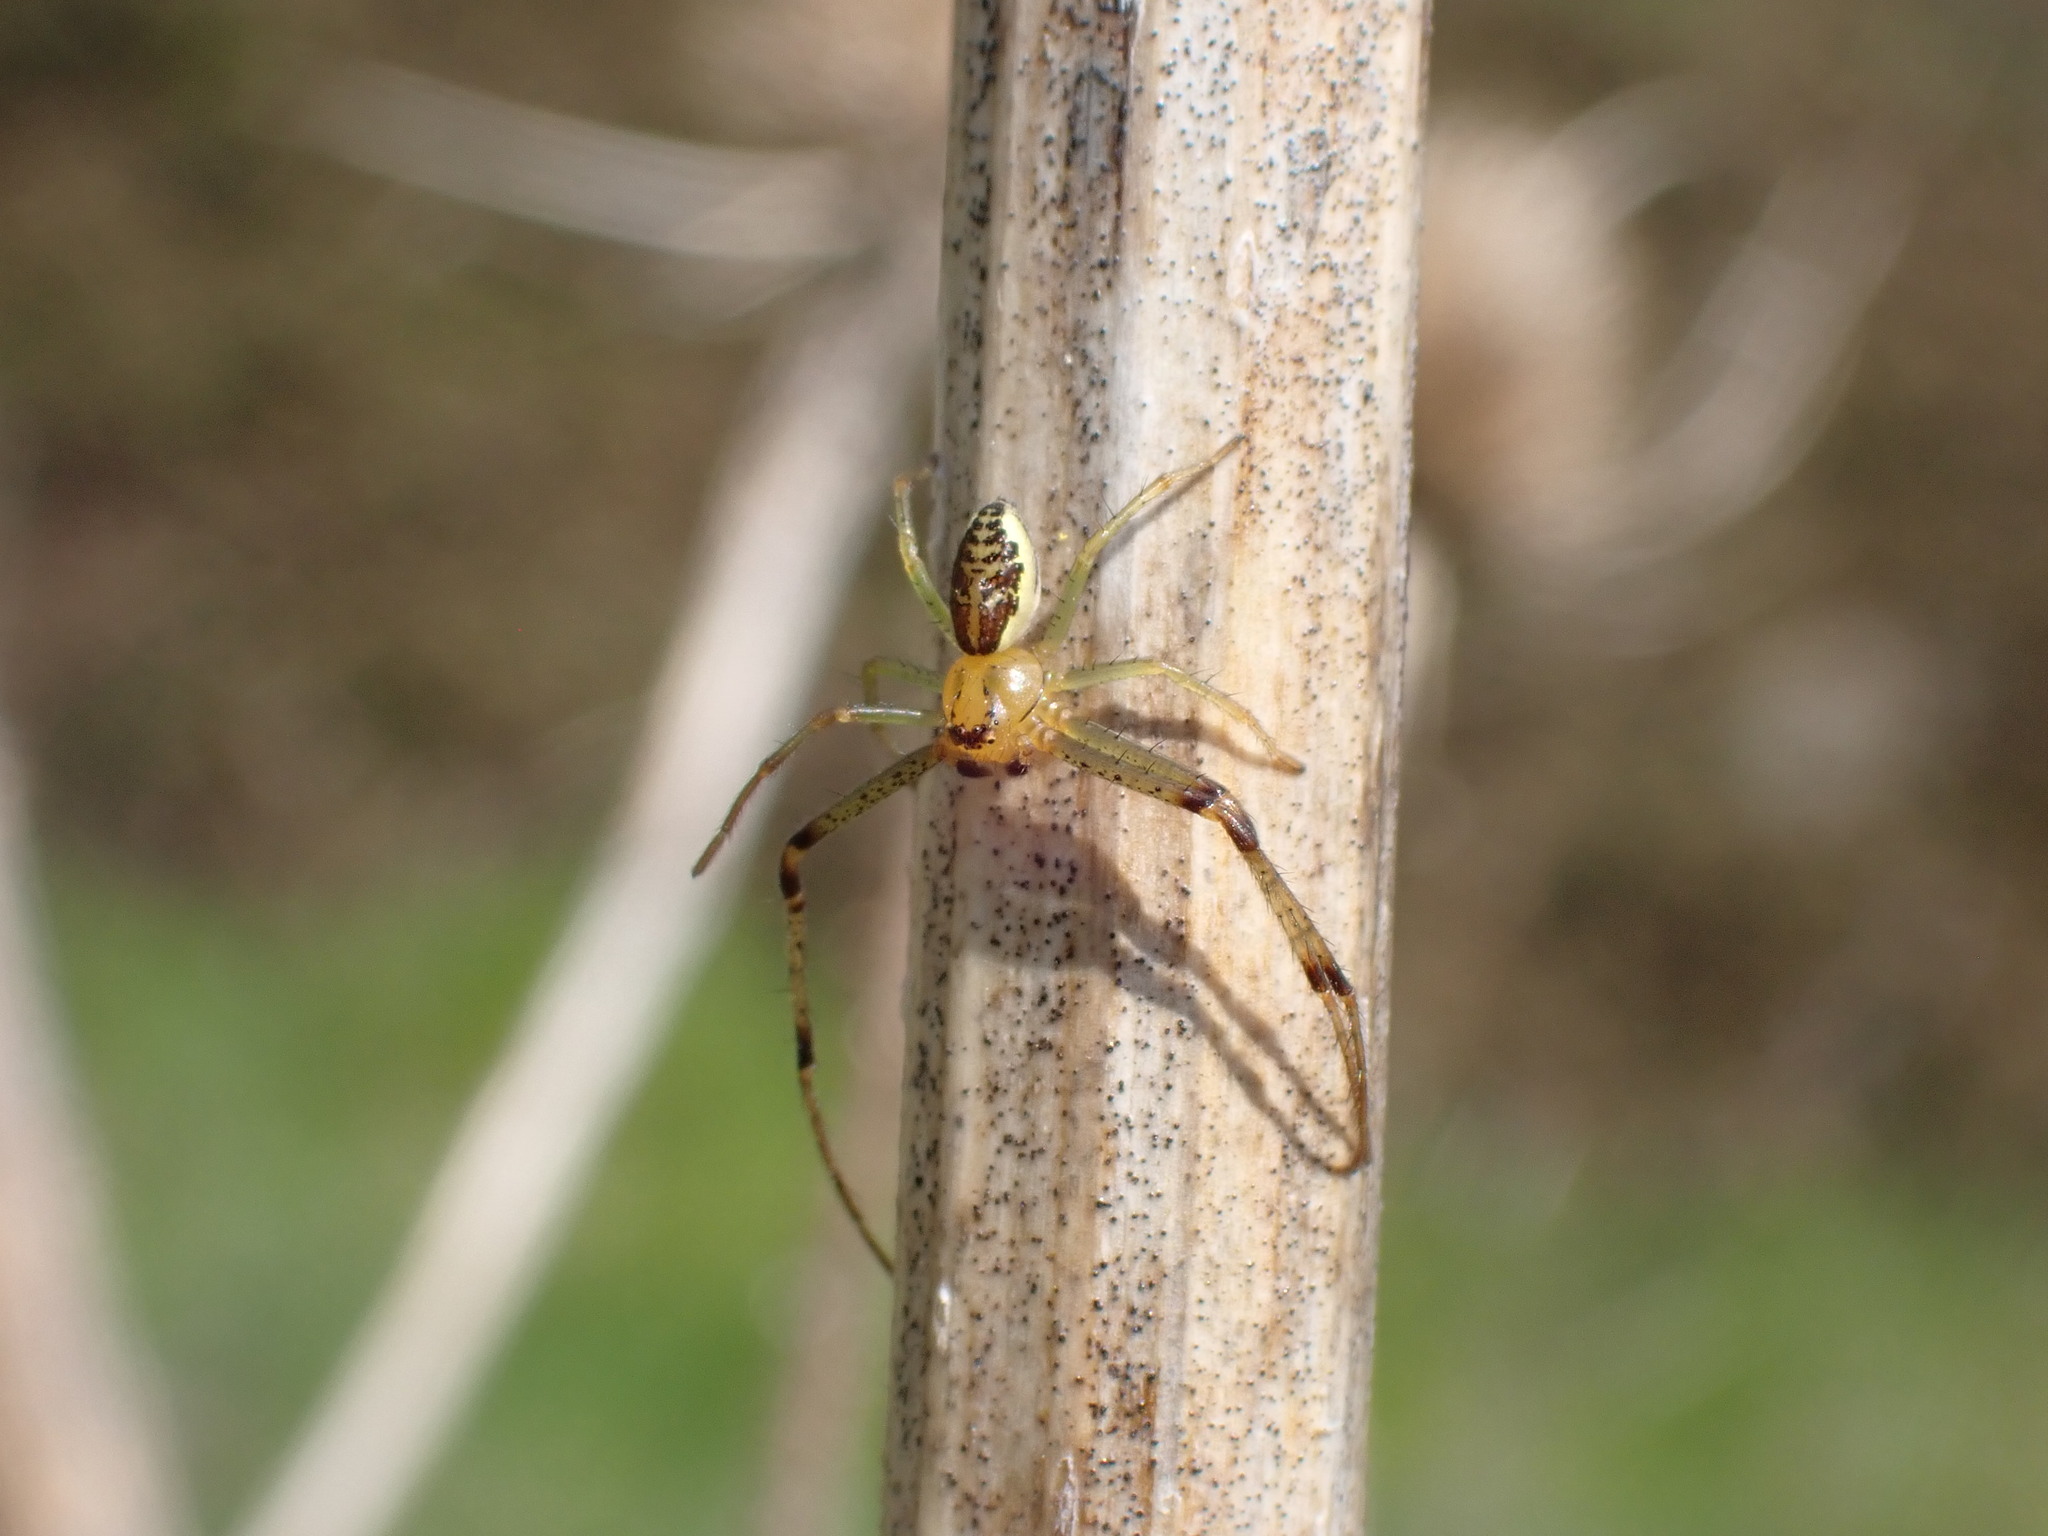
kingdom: Animalia
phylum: Arthropoda
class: Arachnida
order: Araneae
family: Thomisidae
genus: Diaea
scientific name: Diaea dorsata
